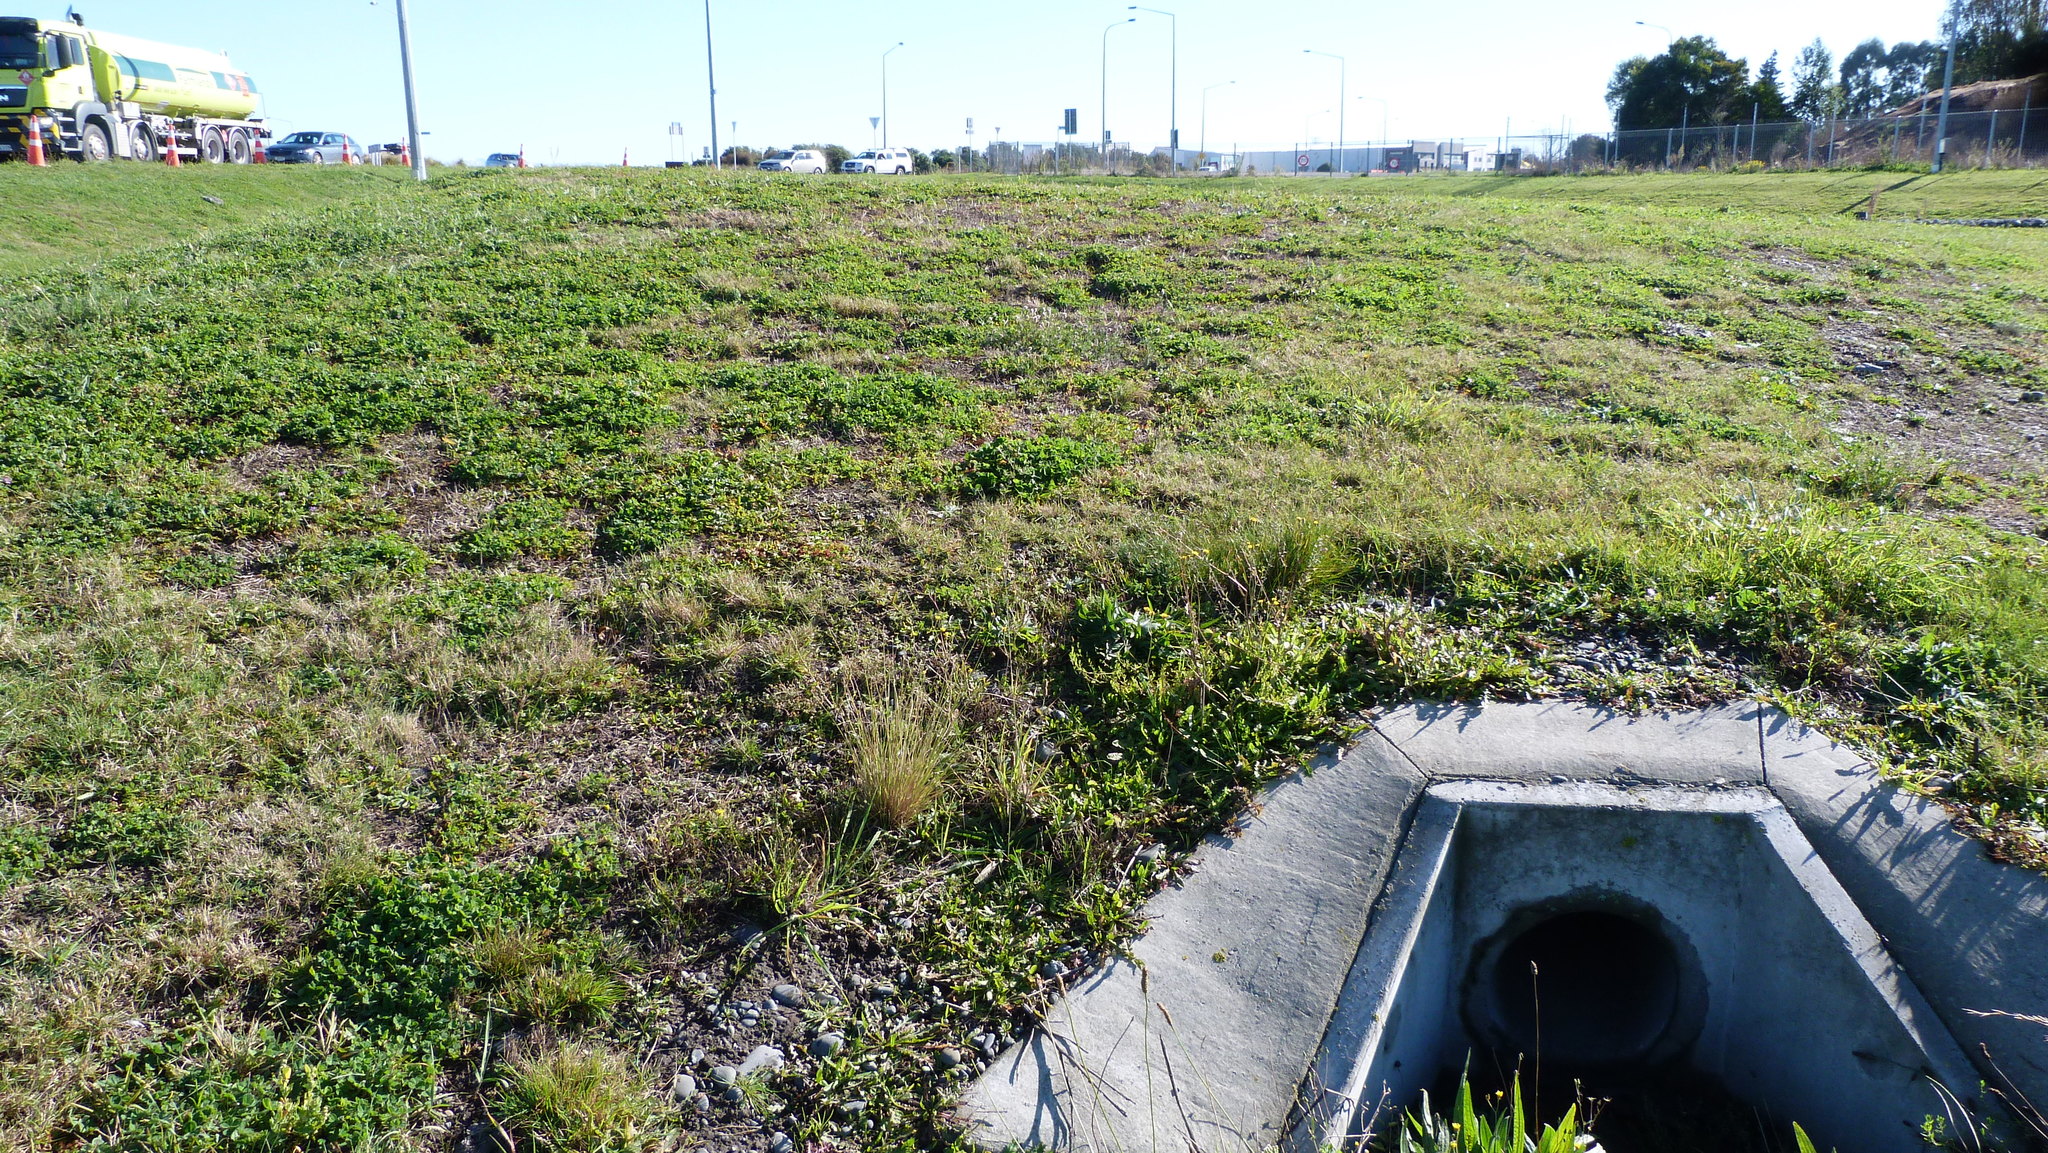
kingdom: Plantae
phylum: Tracheophyta
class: Liliopsida
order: Poales
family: Poaceae
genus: Poa
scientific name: Poa cita
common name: Silver tussock
